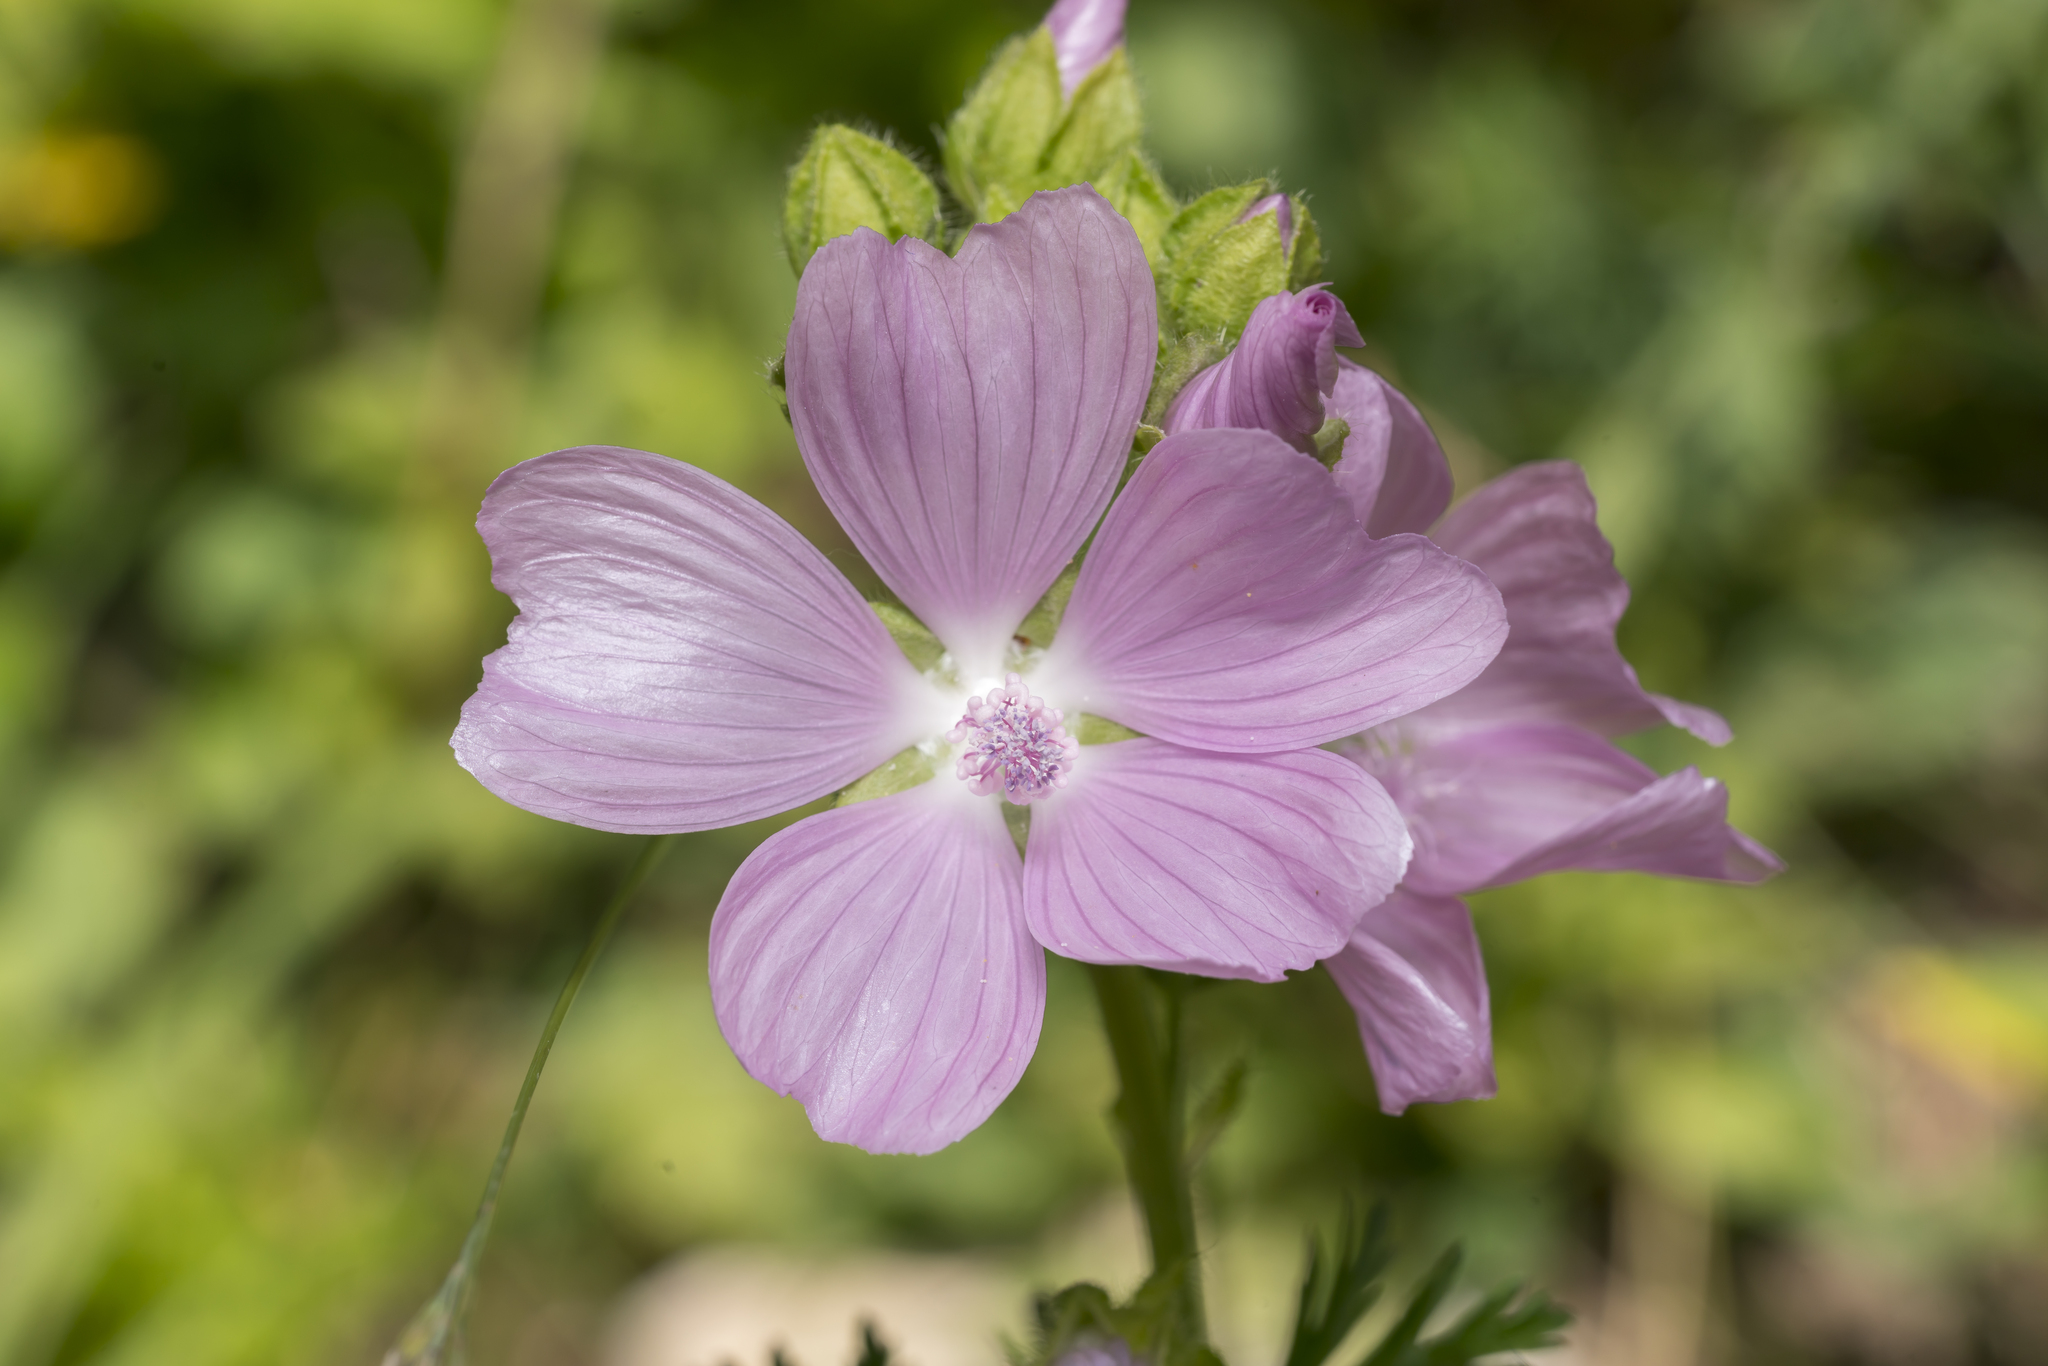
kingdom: Plantae
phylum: Tracheophyta
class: Magnoliopsida
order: Malvales
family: Malvaceae
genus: Malva
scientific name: Malva moschata
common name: Musk mallow
